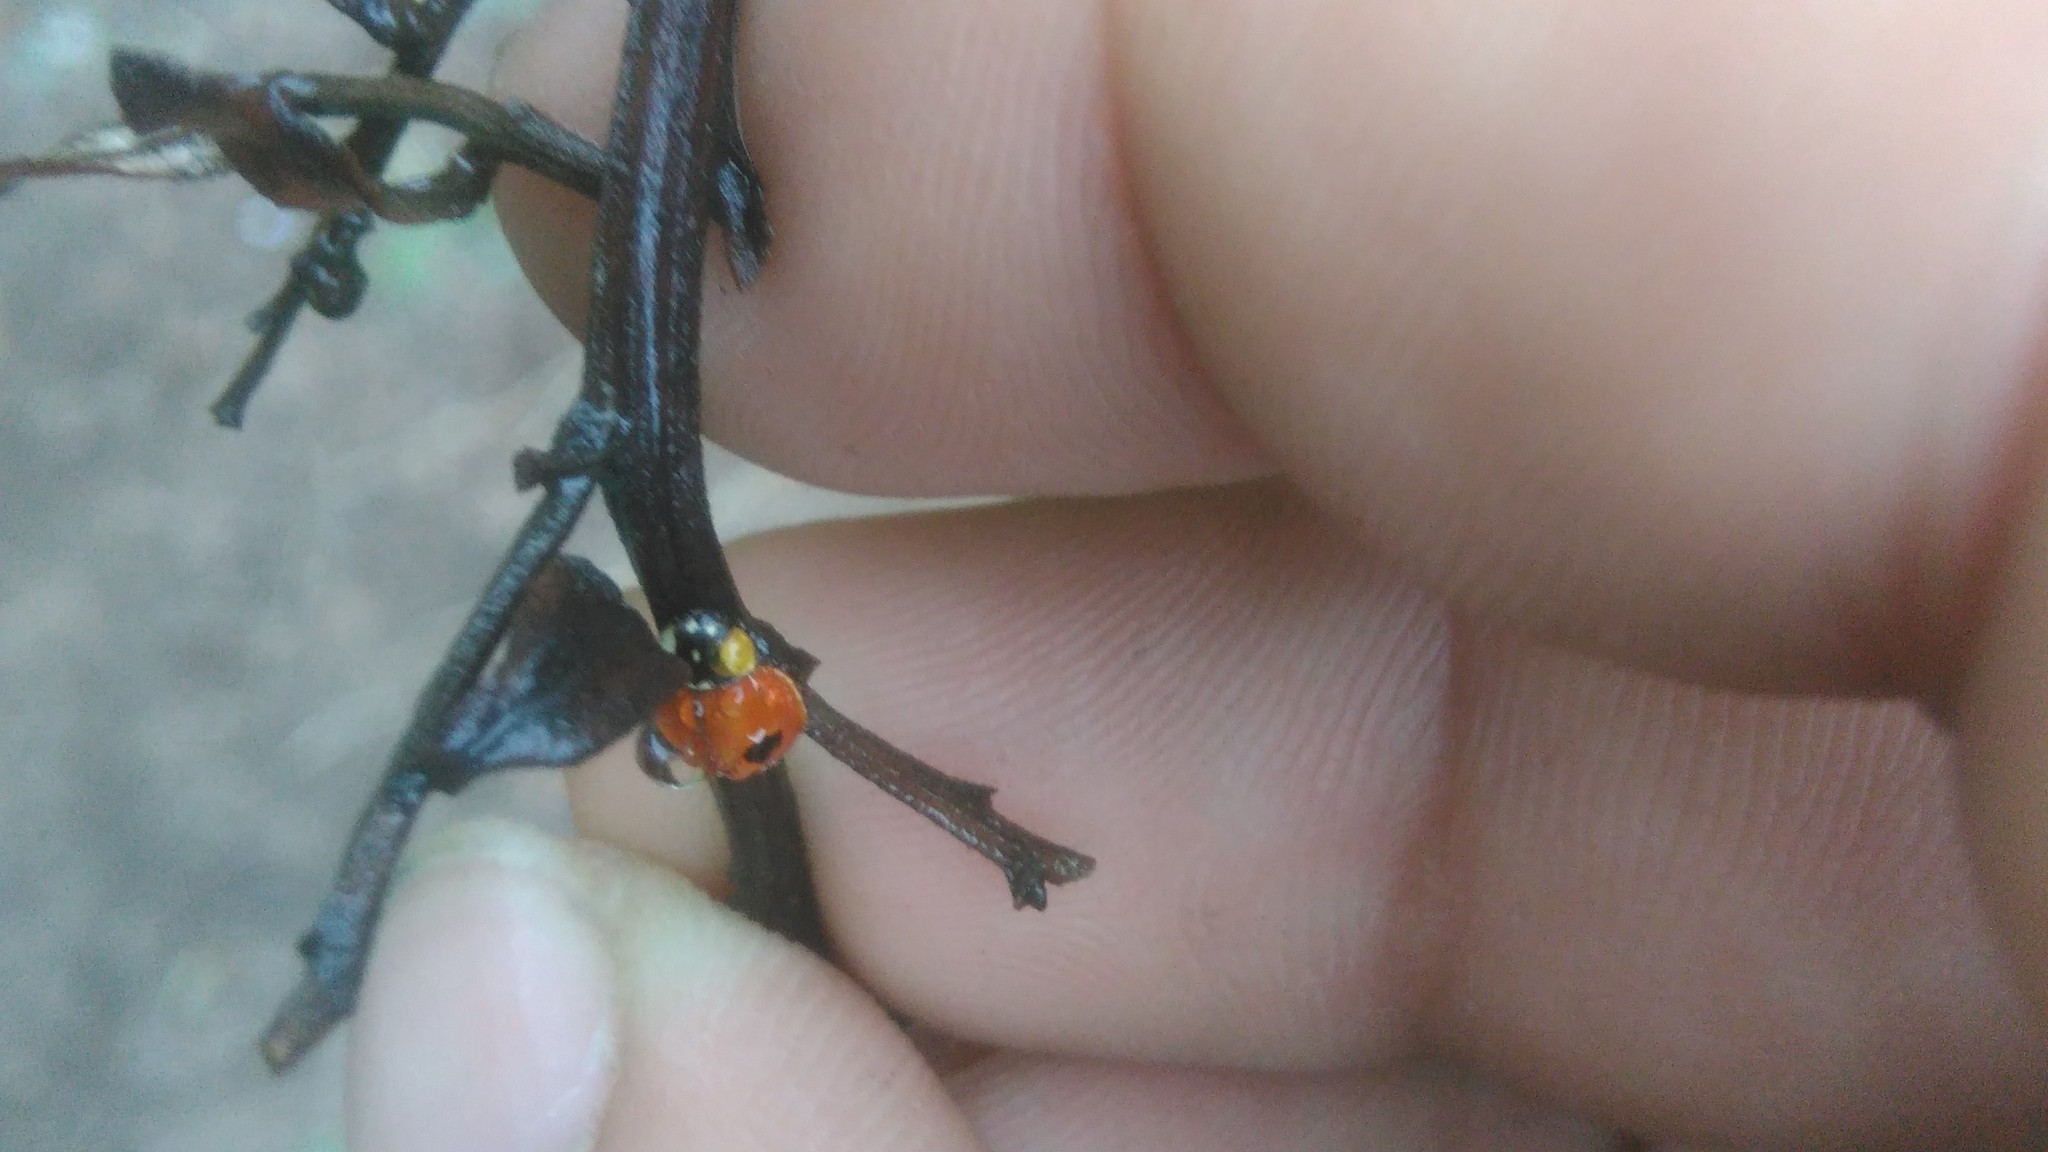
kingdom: Animalia
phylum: Arthropoda
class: Insecta
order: Coleoptera
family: Coccinellidae
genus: Adalia
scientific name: Adalia bipunctata
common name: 2-spot ladybird
